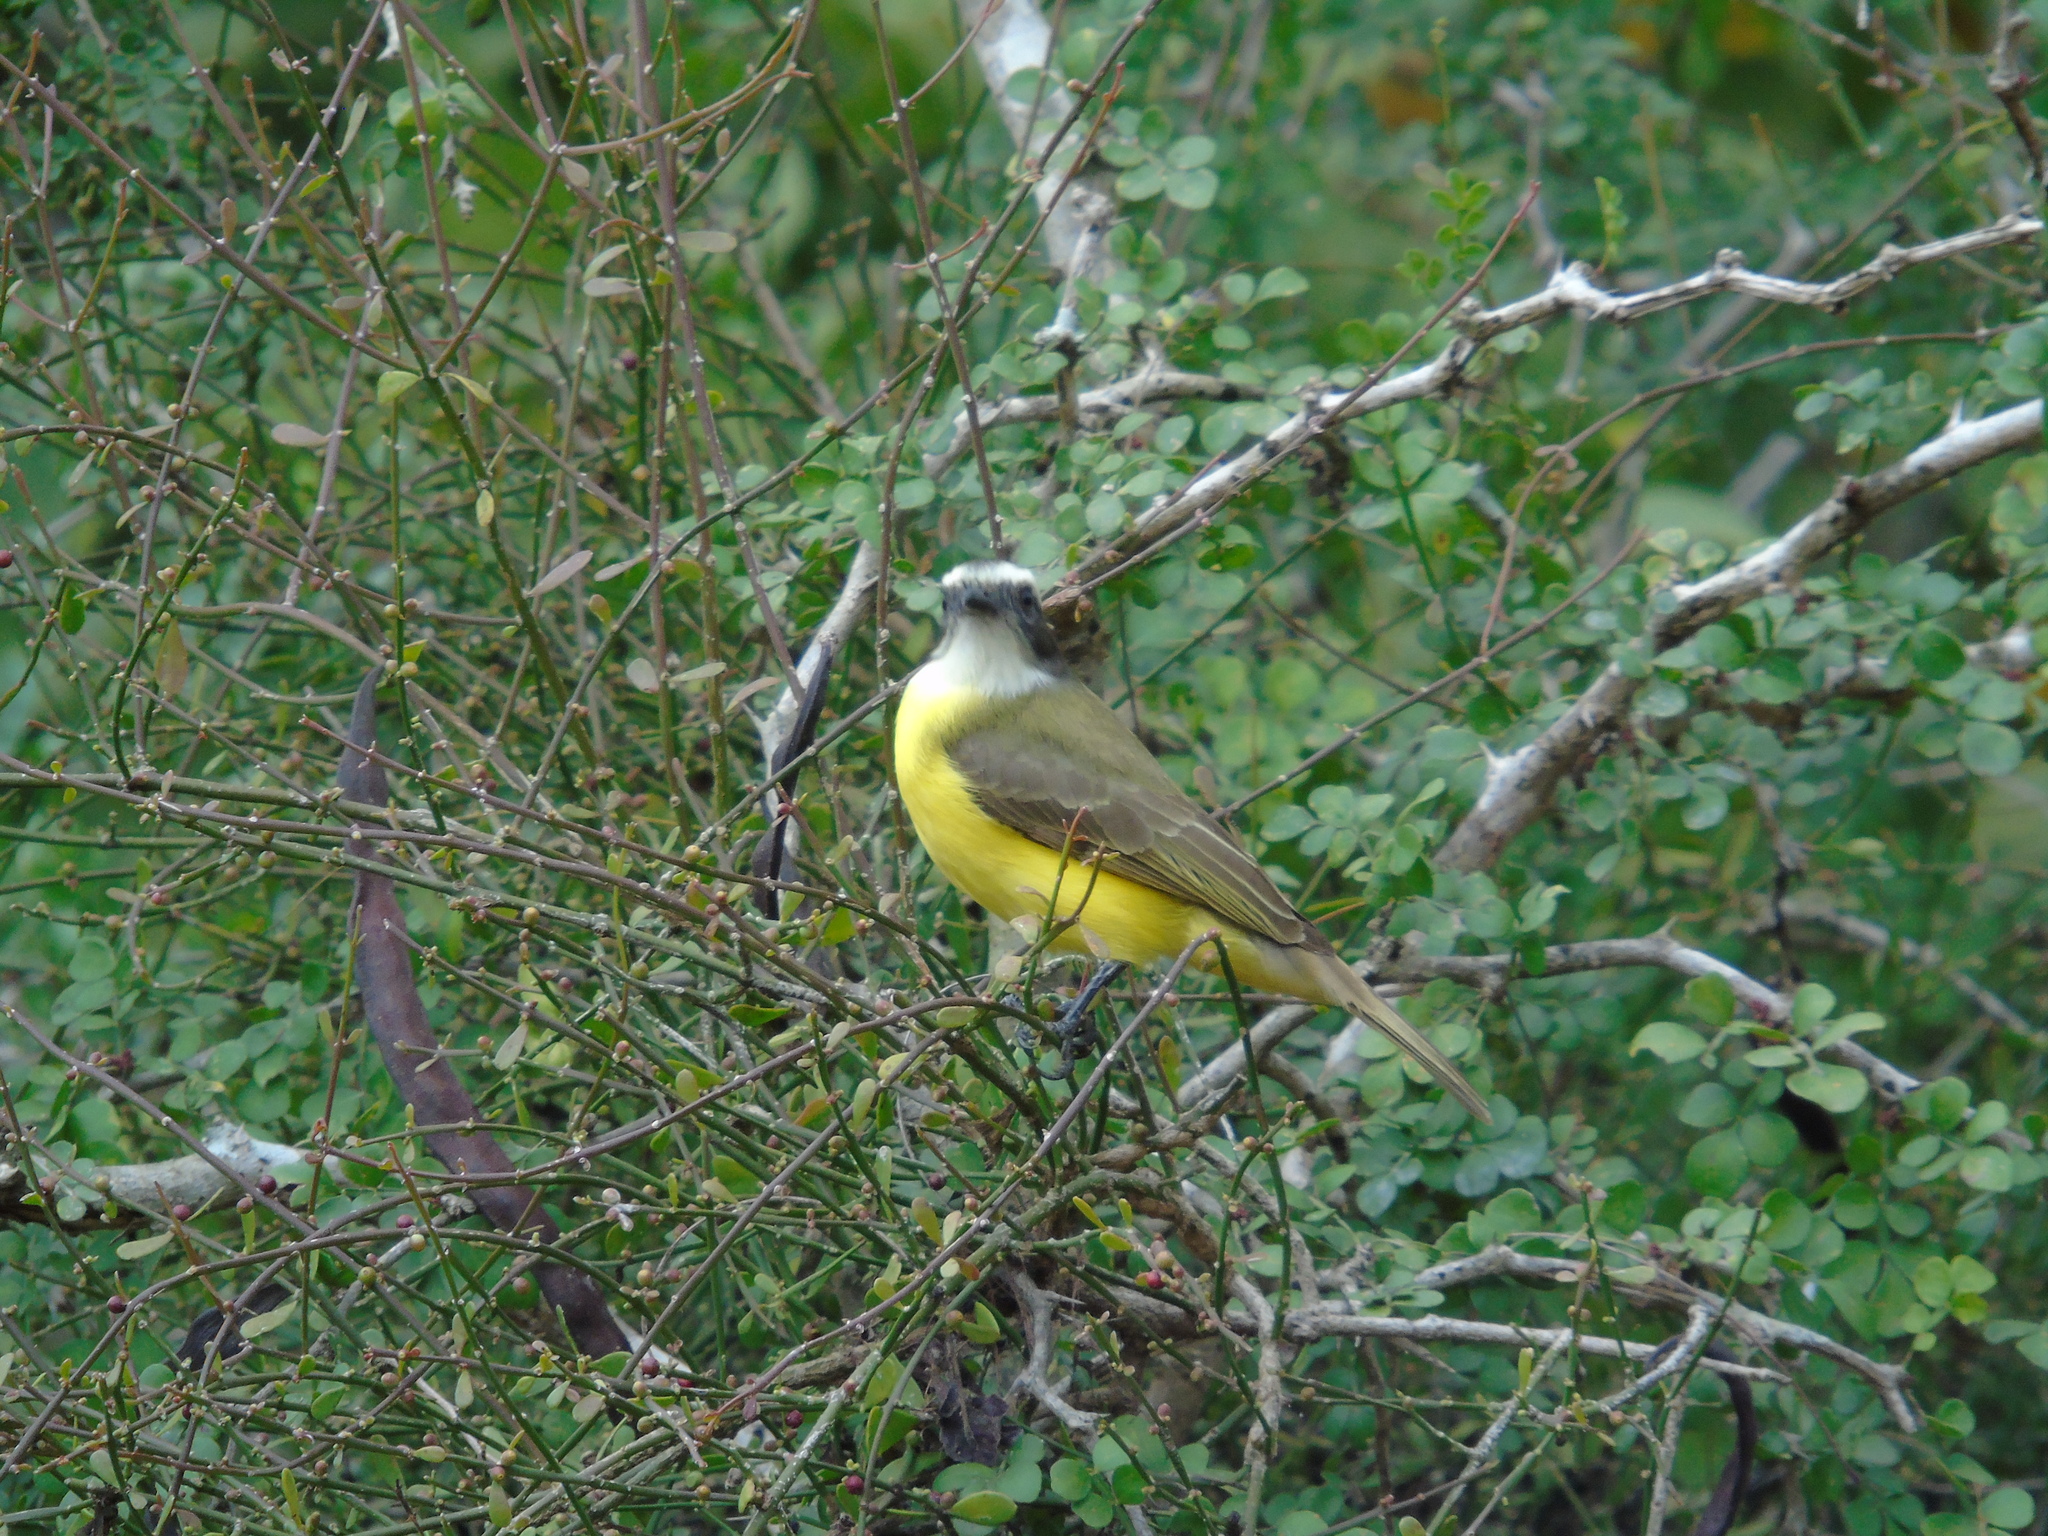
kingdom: Animalia
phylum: Chordata
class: Aves
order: Passeriformes
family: Tyrannidae
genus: Myiozetetes
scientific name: Myiozetetes similis
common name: Social flycatcher
